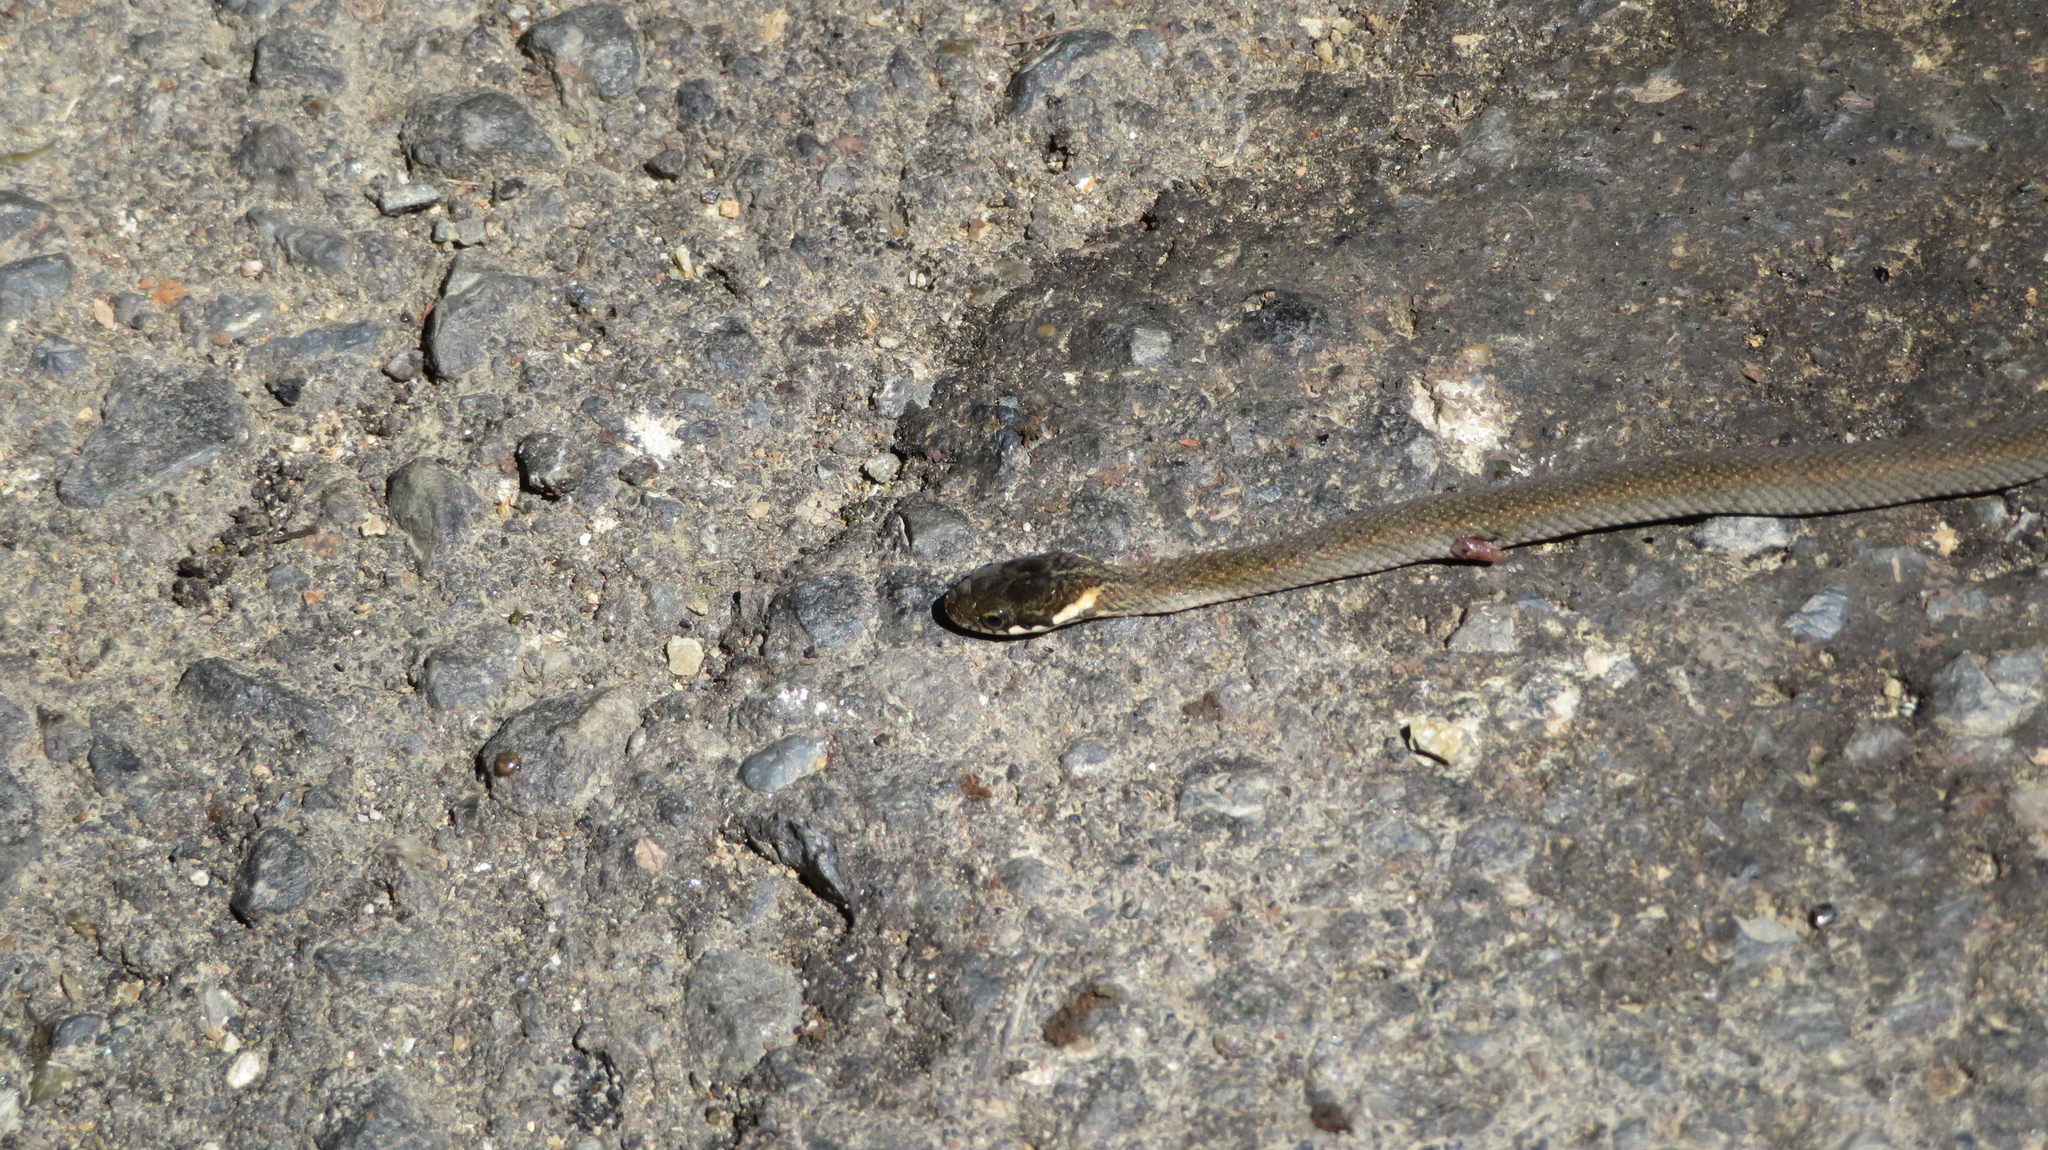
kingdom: Animalia
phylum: Chordata
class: Squamata
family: Colubridae
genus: Hebius
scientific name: Hebius vibakari
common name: Japanese keelback
